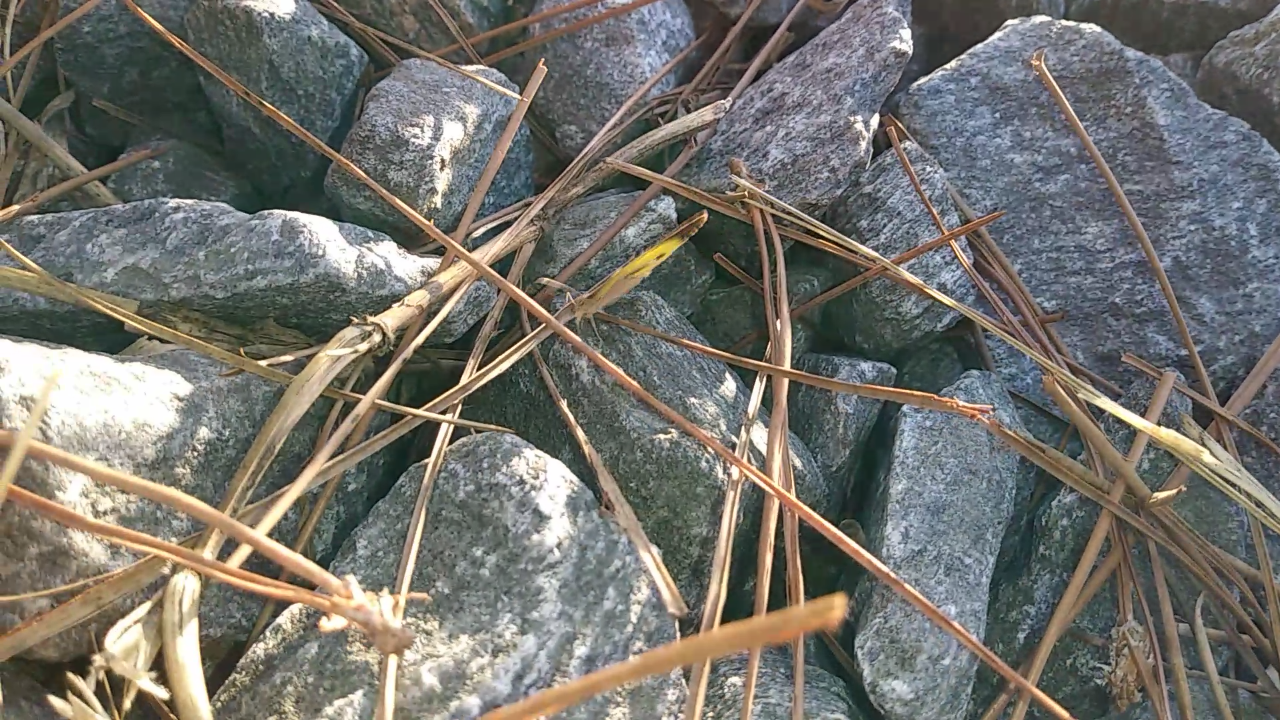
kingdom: Animalia
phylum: Arthropoda
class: Insecta
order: Lepidoptera
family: Pieridae
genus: Eurema
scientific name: Eurema daira
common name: Barred sulphur
